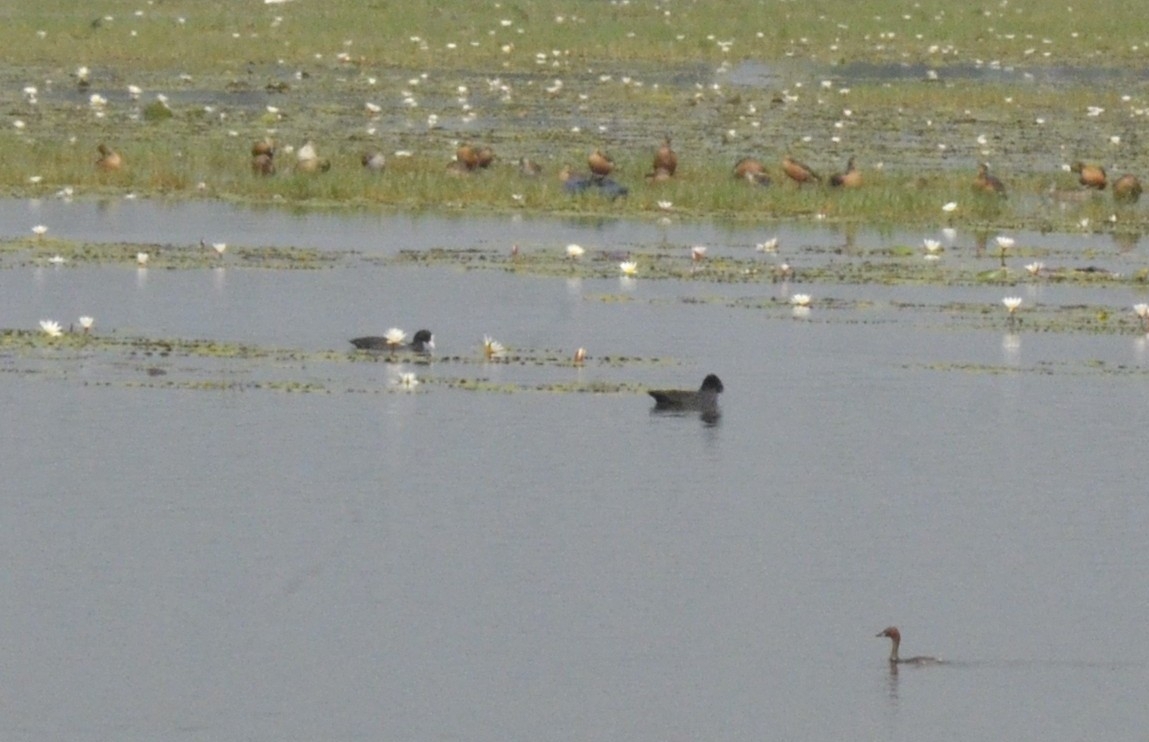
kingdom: Animalia
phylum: Chordata
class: Aves
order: Gruiformes
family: Rallidae
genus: Fulica
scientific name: Fulica atra
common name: Eurasian coot
